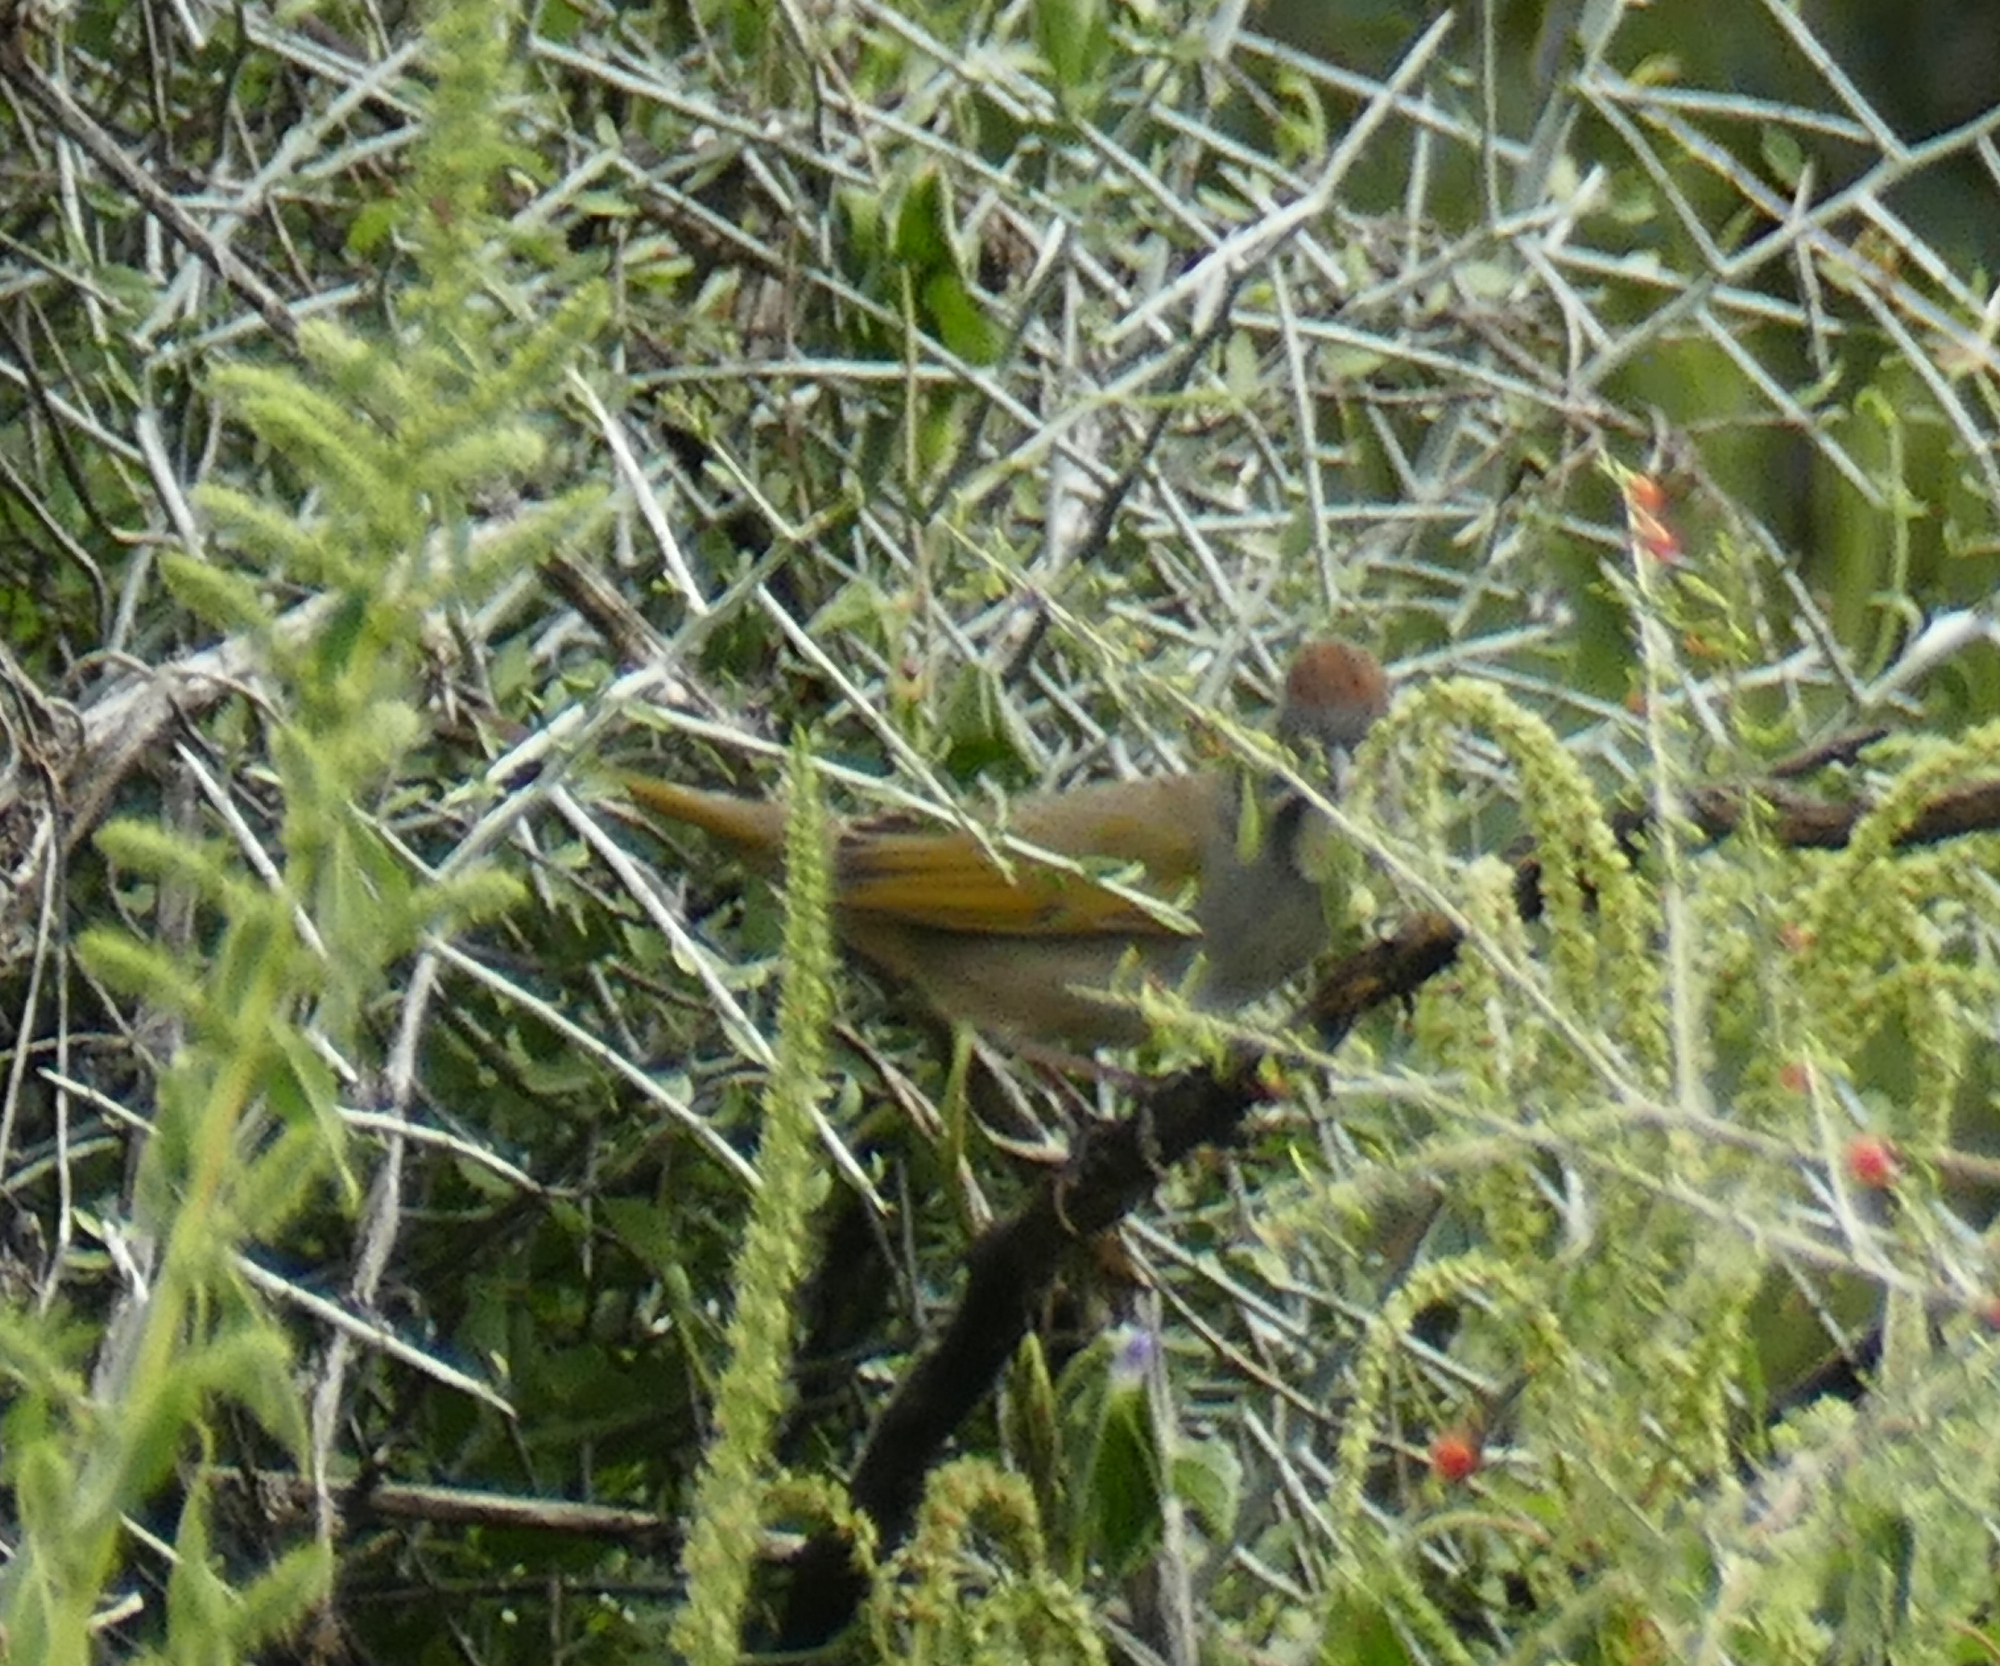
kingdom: Animalia
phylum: Chordata
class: Aves
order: Passeriformes
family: Passerellidae
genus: Pipilo
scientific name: Pipilo chlorurus
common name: Green-tailed towhee
